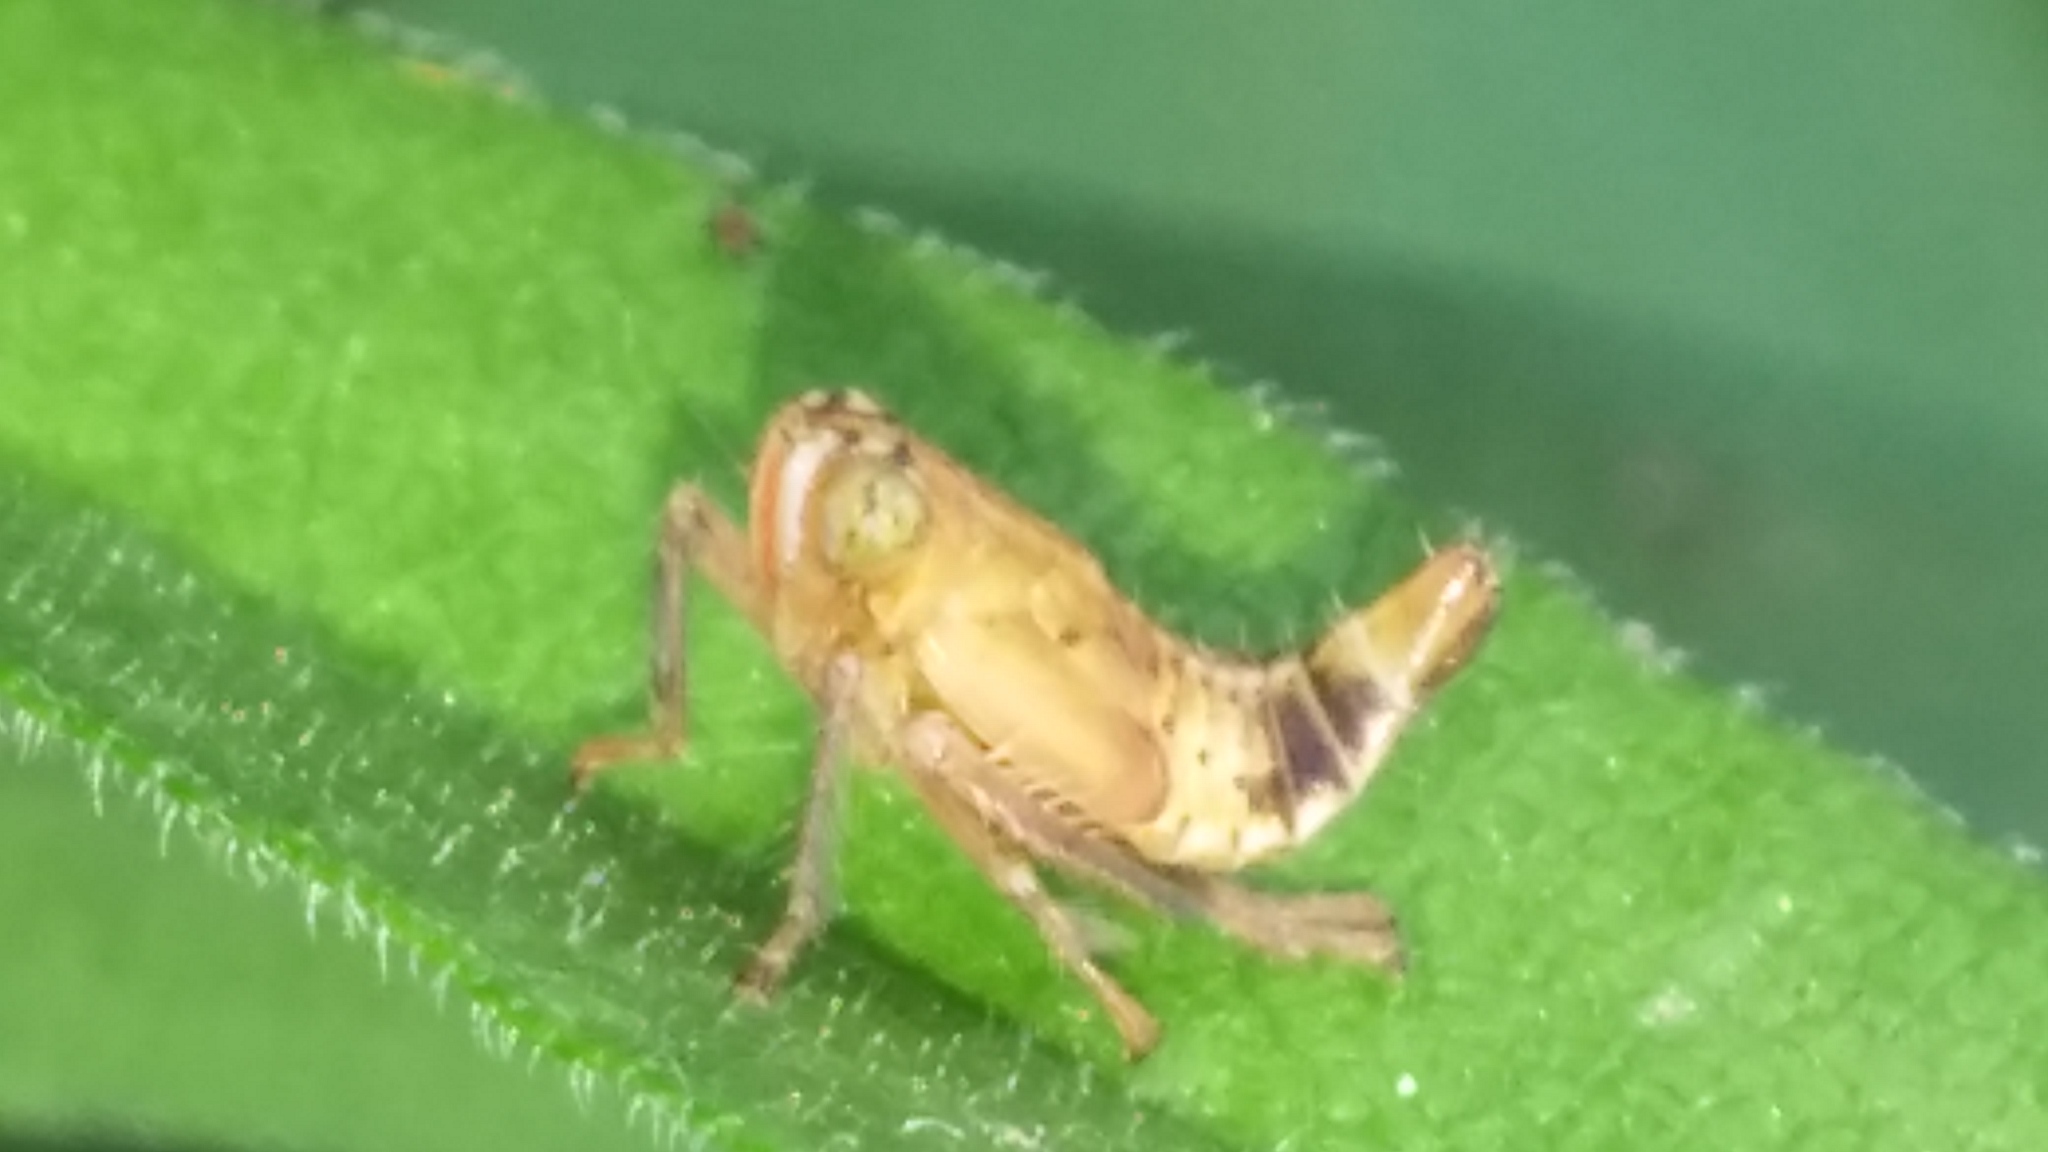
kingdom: Animalia
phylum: Arthropoda
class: Insecta
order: Hemiptera
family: Cicadellidae
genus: Jikradia
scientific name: Jikradia olitoria
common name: Coppery leafhopper
